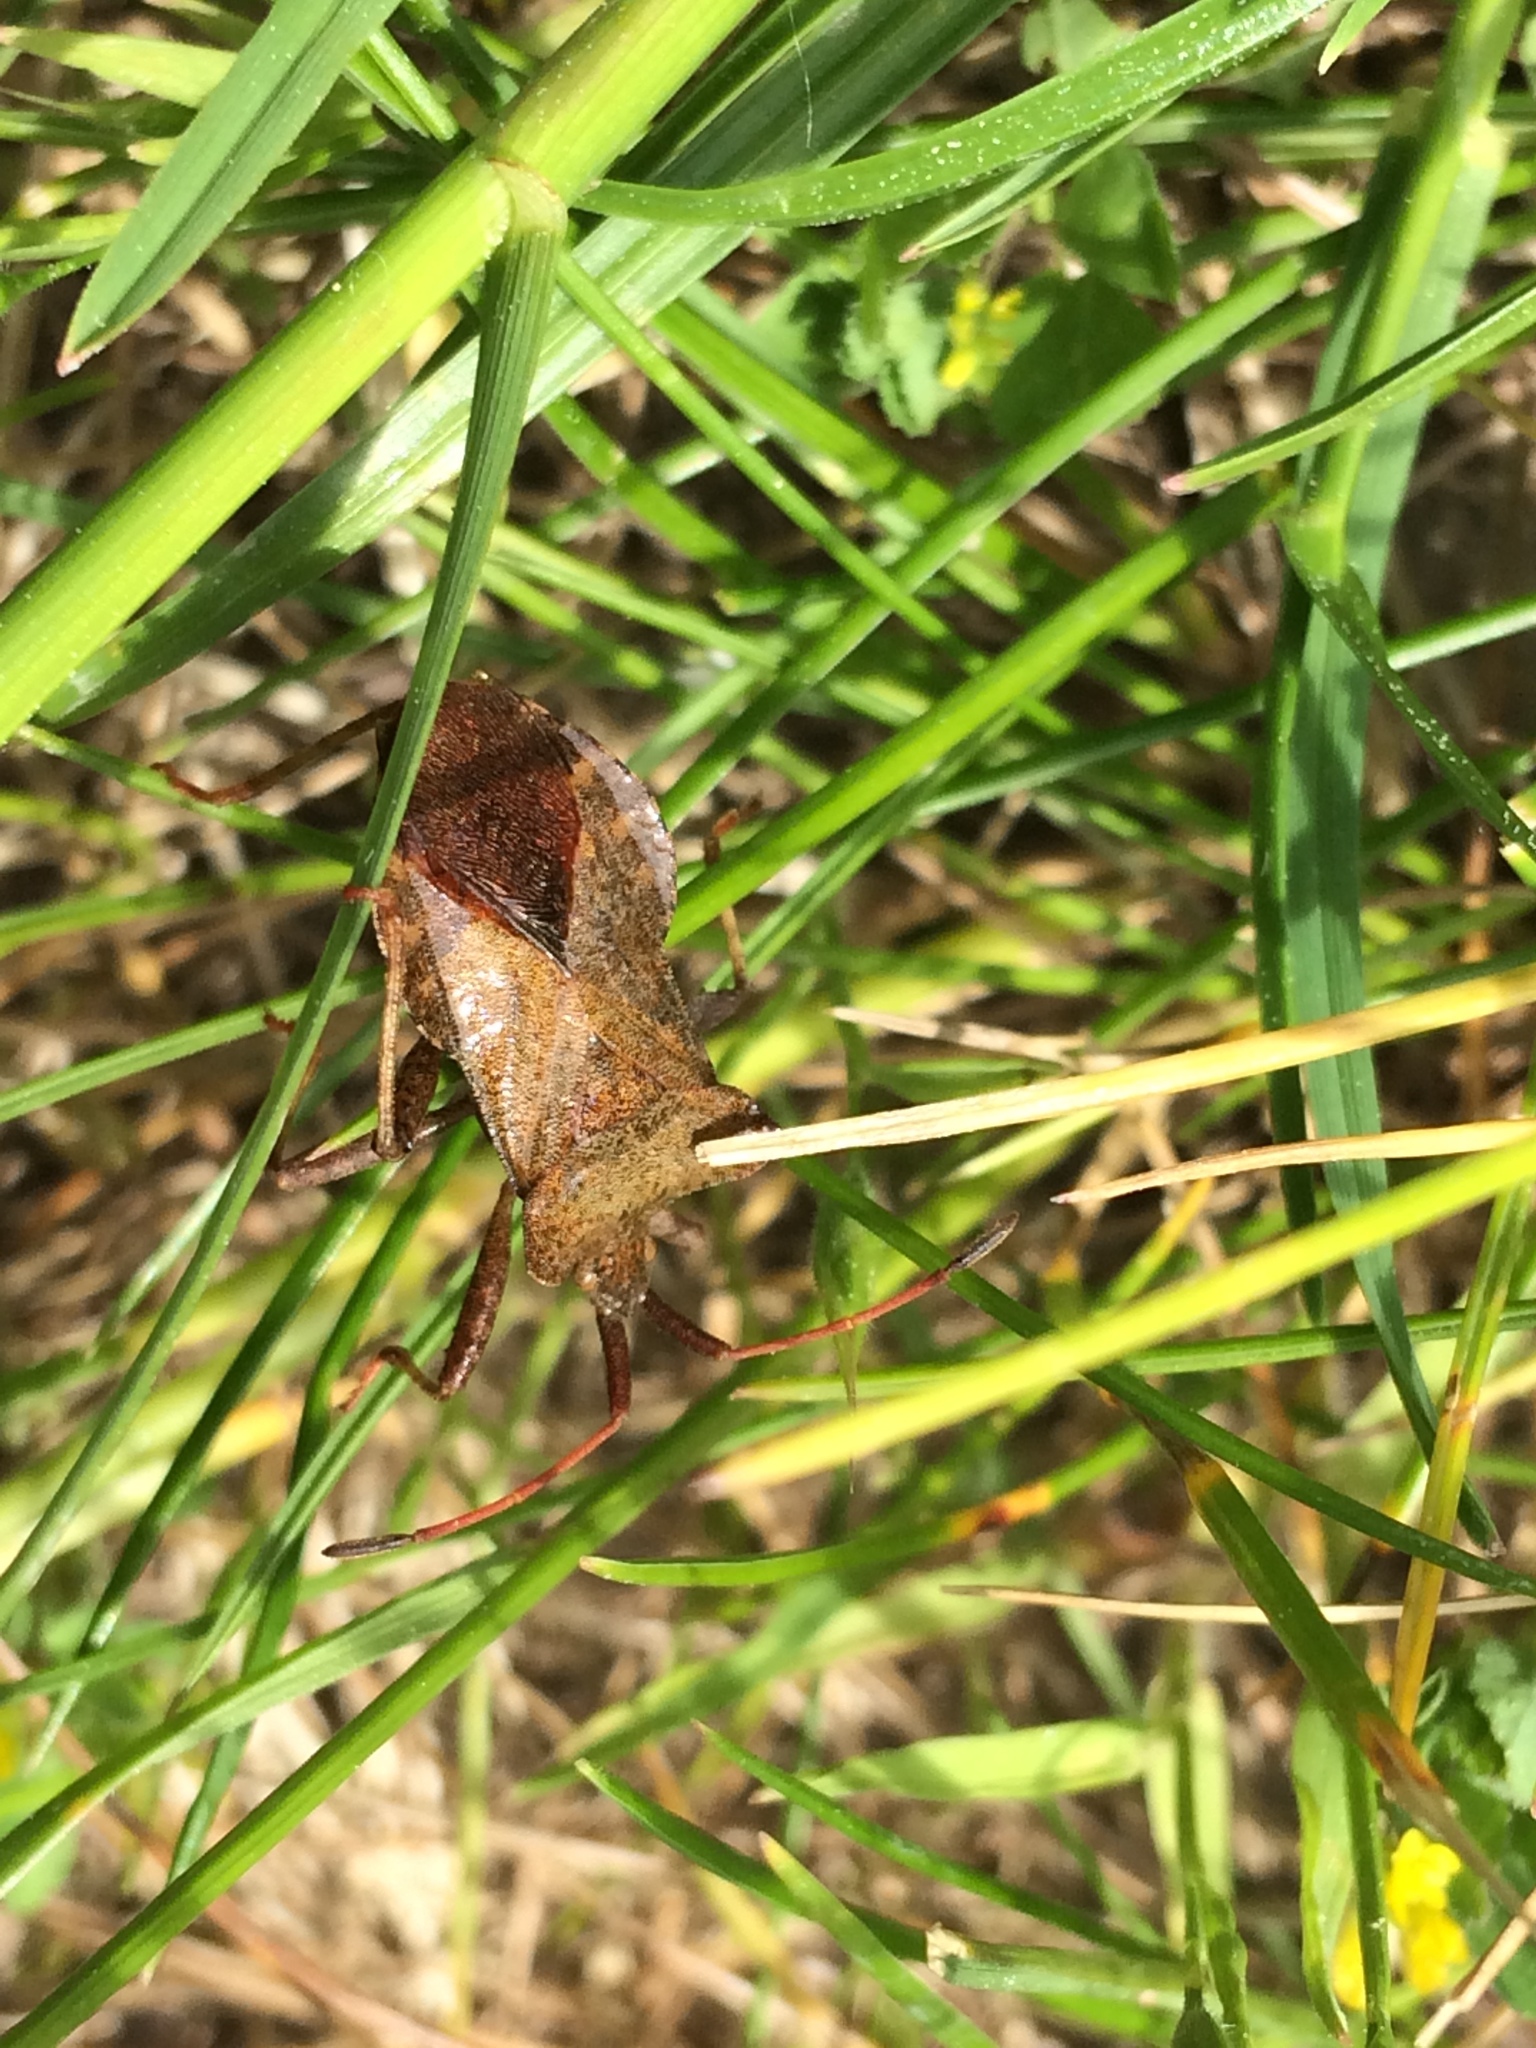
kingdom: Animalia
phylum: Arthropoda
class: Insecta
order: Hemiptera
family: Coreidae
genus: Coreus
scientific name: Coreus marginatus
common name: Dock bug
